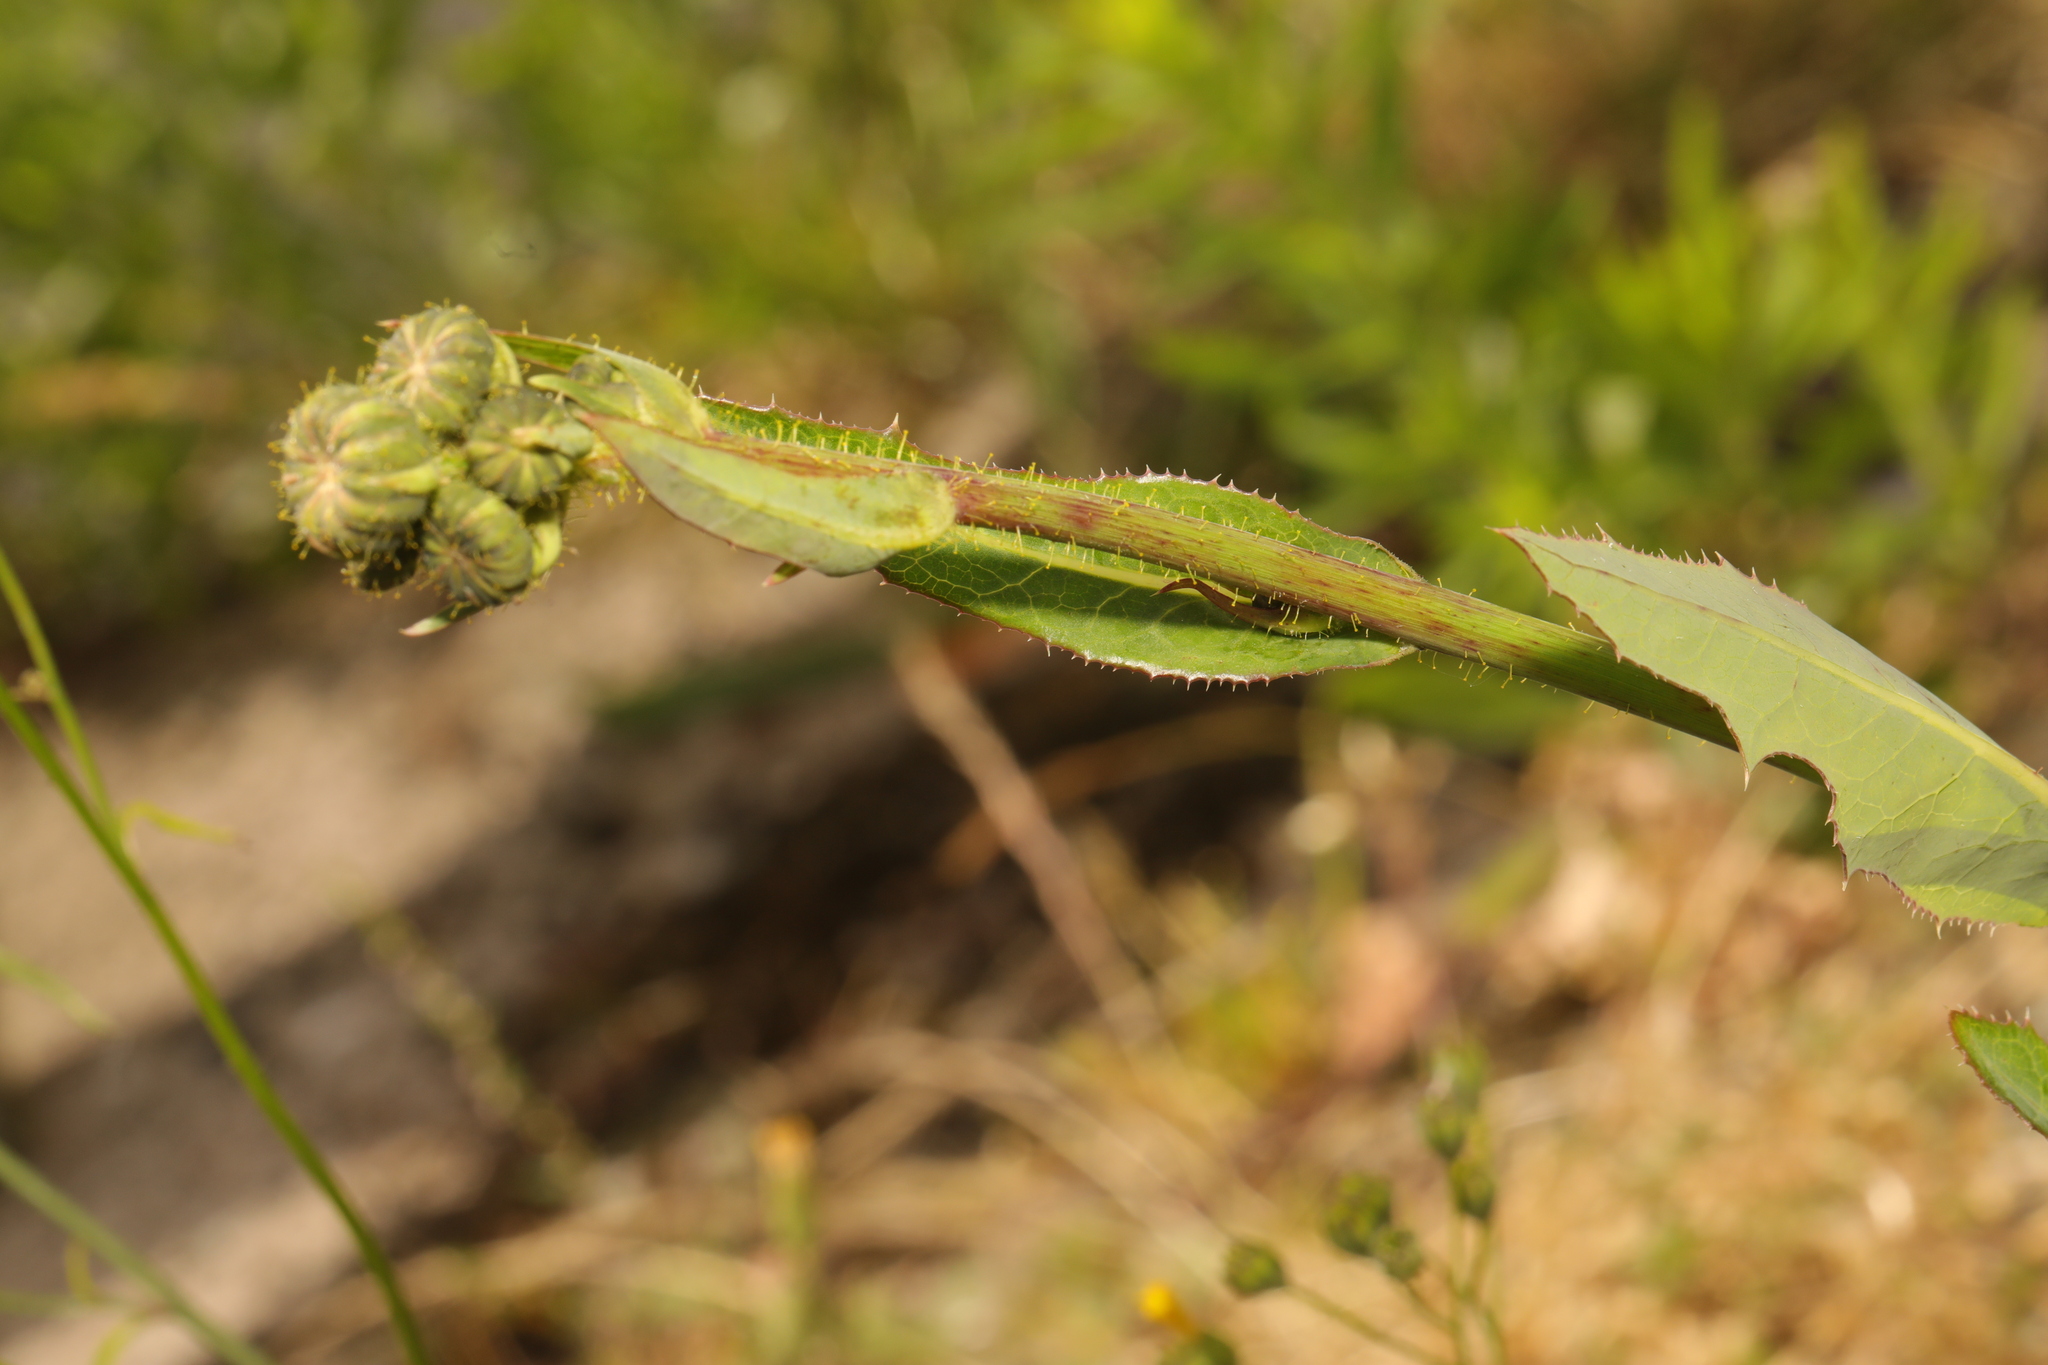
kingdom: Plantae
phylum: Tracheophyta
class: Magnoliopsida
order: Asterales
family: Asteraceae
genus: Sonchus
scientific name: Sonchus arvensis
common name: Perennial sow-thistle
